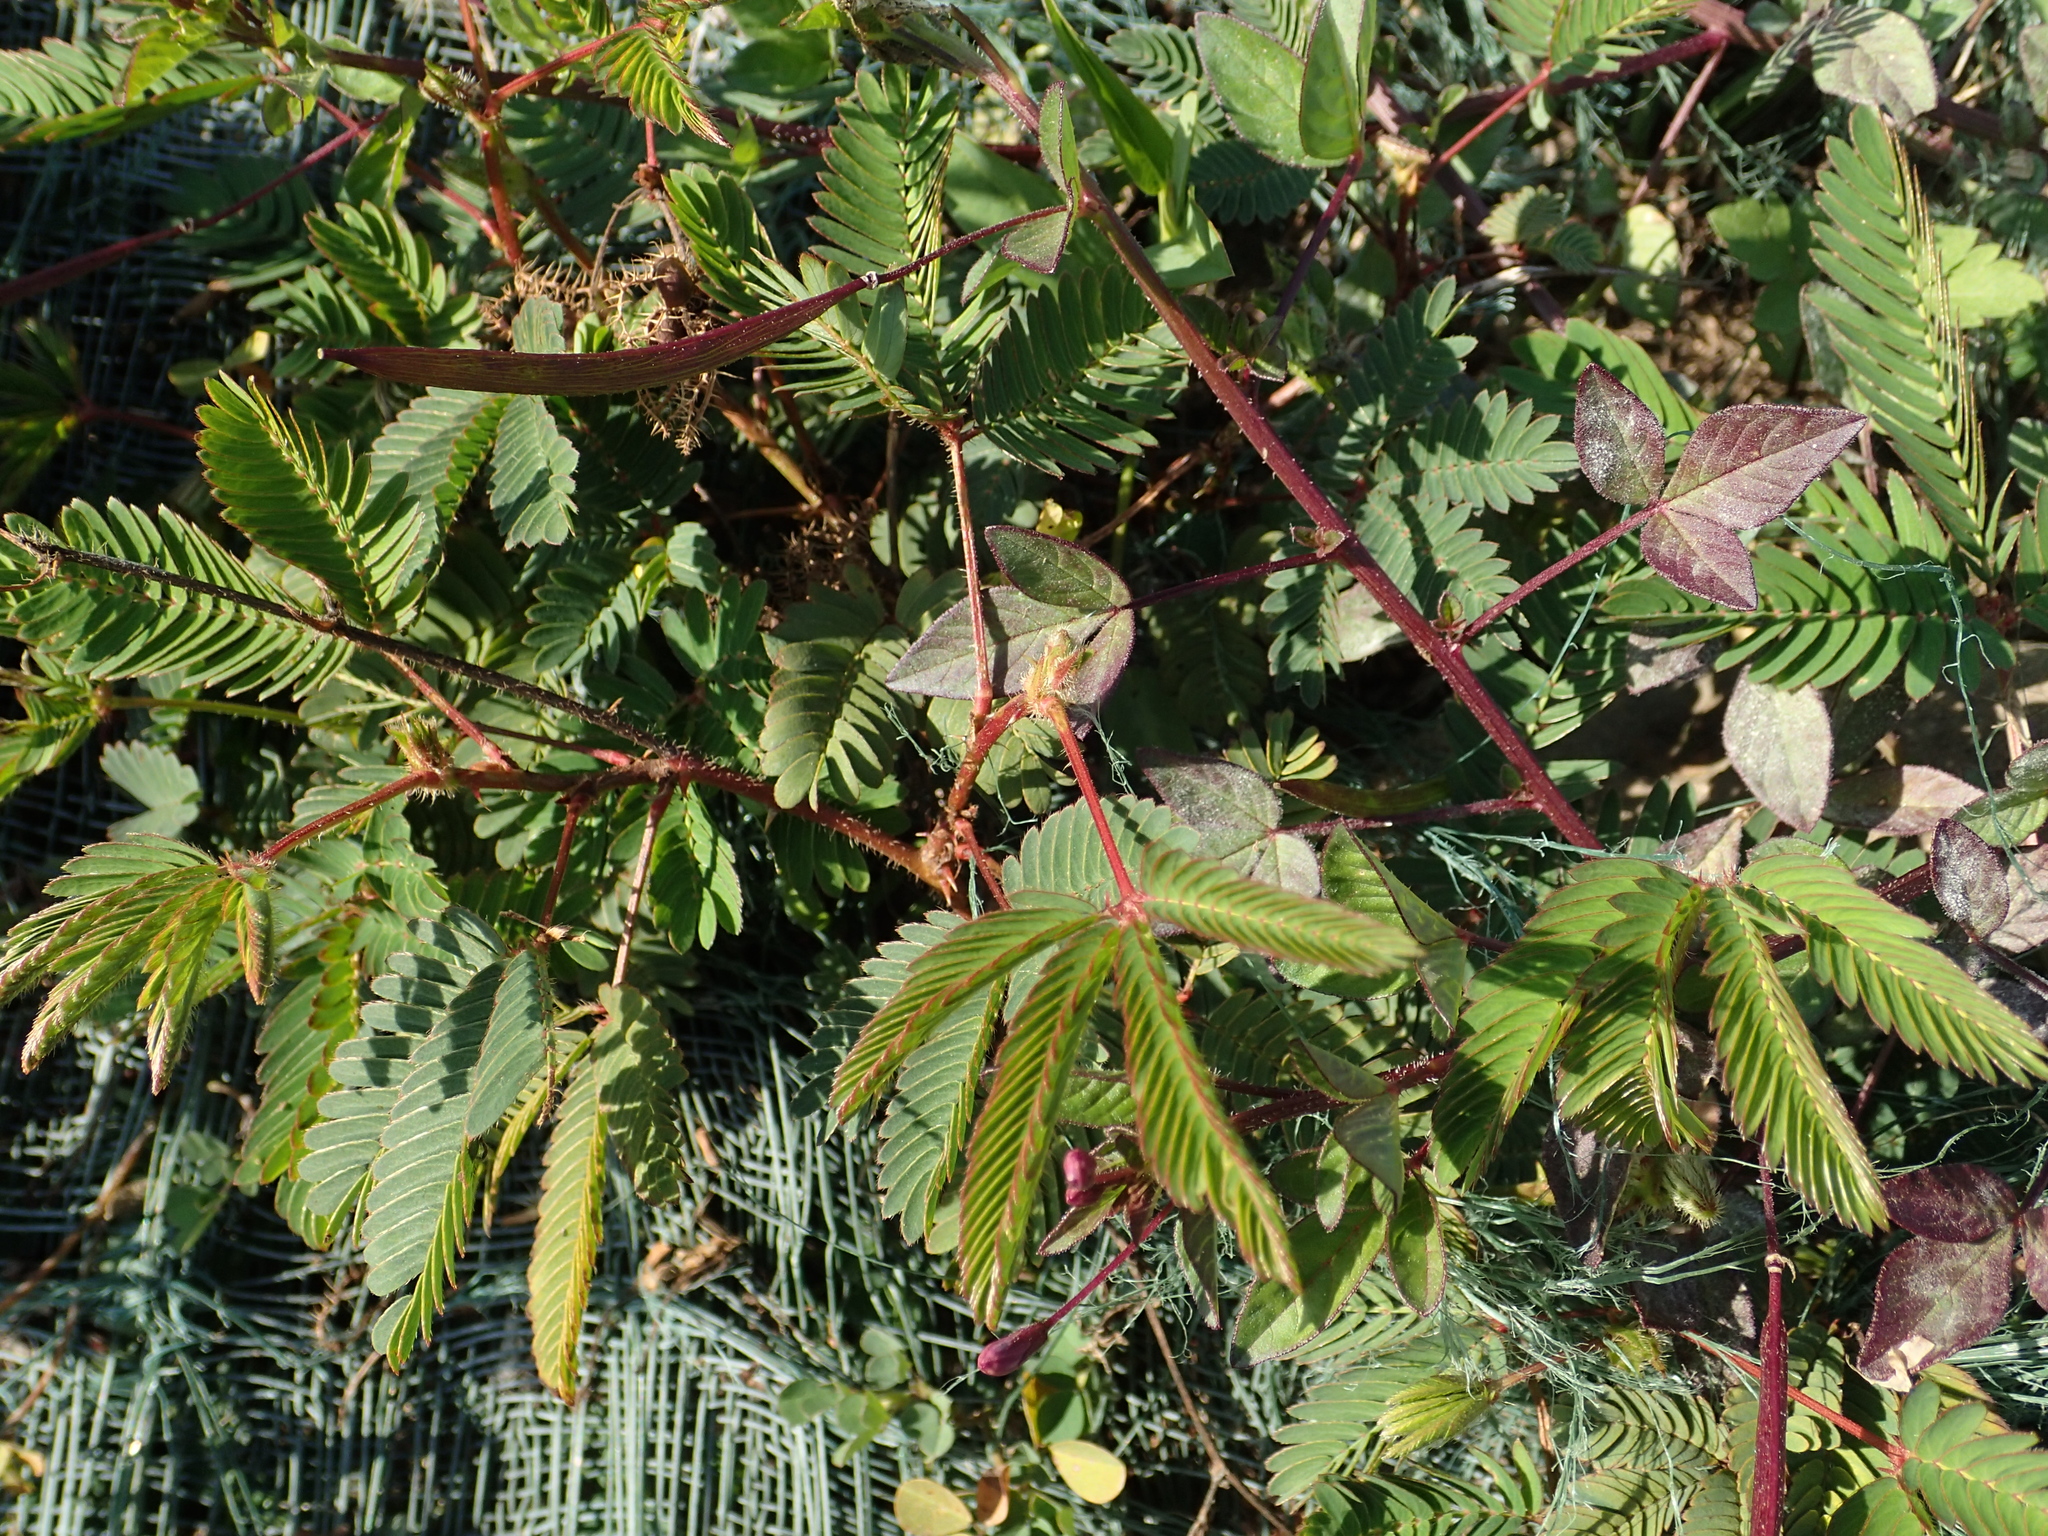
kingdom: Plantae
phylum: Tracheophyta
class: Magnoliopsida
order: Fabales
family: Fabaceae
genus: Mimosa
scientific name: Mimosa pudica
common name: Sensitive plant
